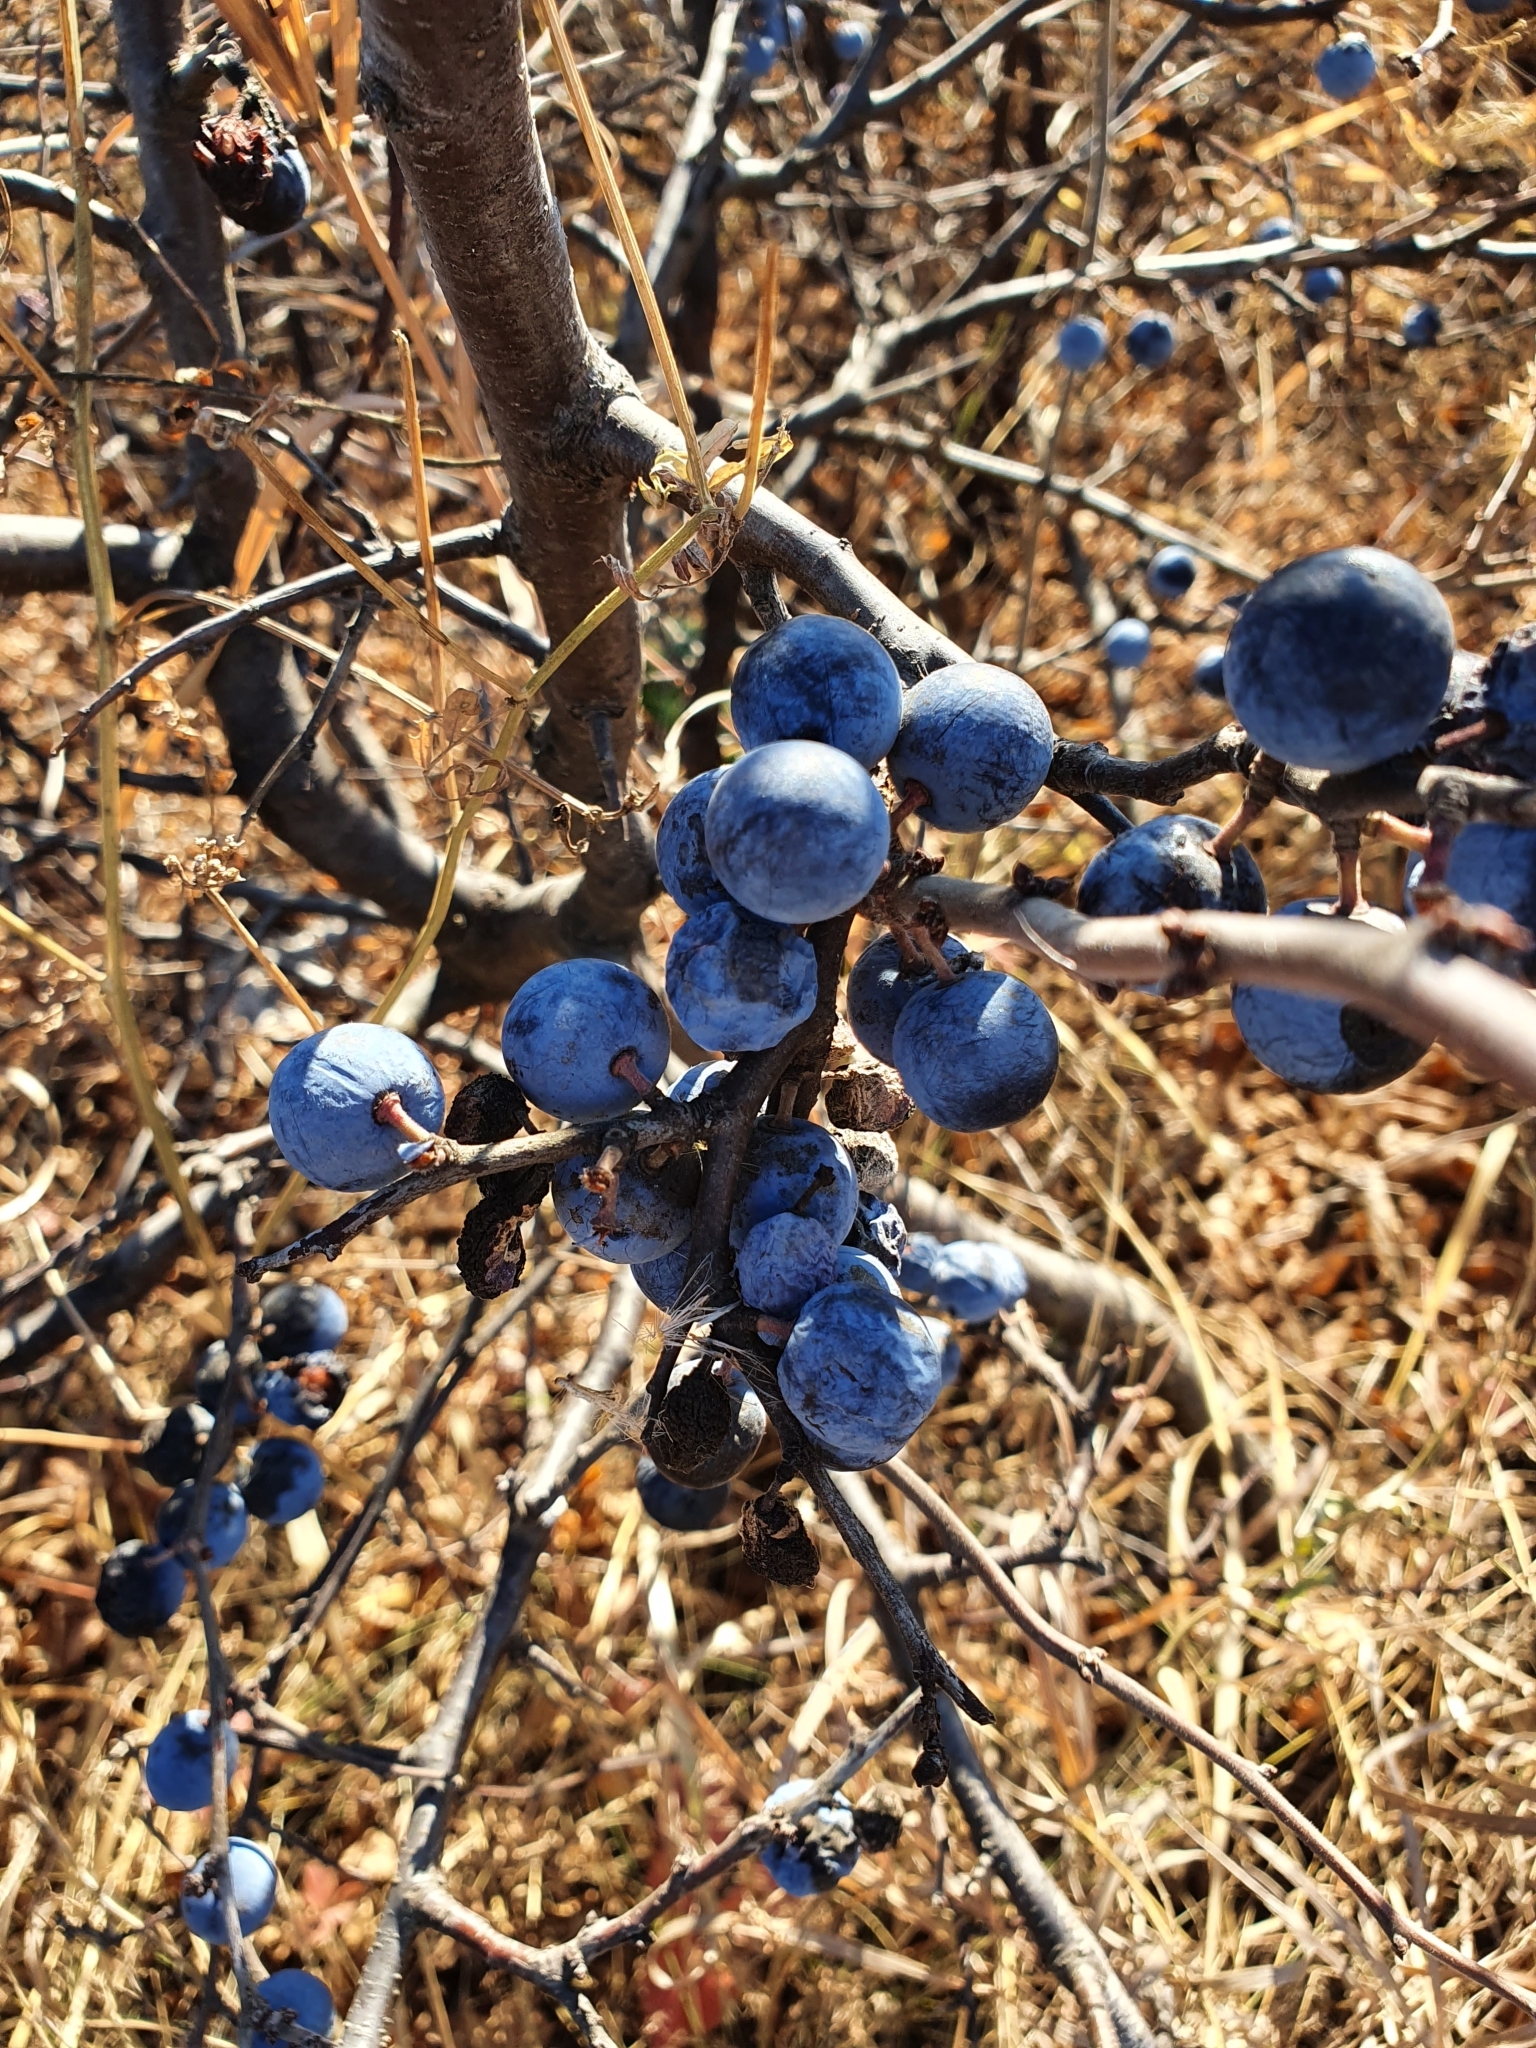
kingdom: Plantae
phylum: Tracheophyta
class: Magnoliopsida
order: Rosales
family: Rosaceae
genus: Prunus
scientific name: Prunus spinosa
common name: Blackthorn
